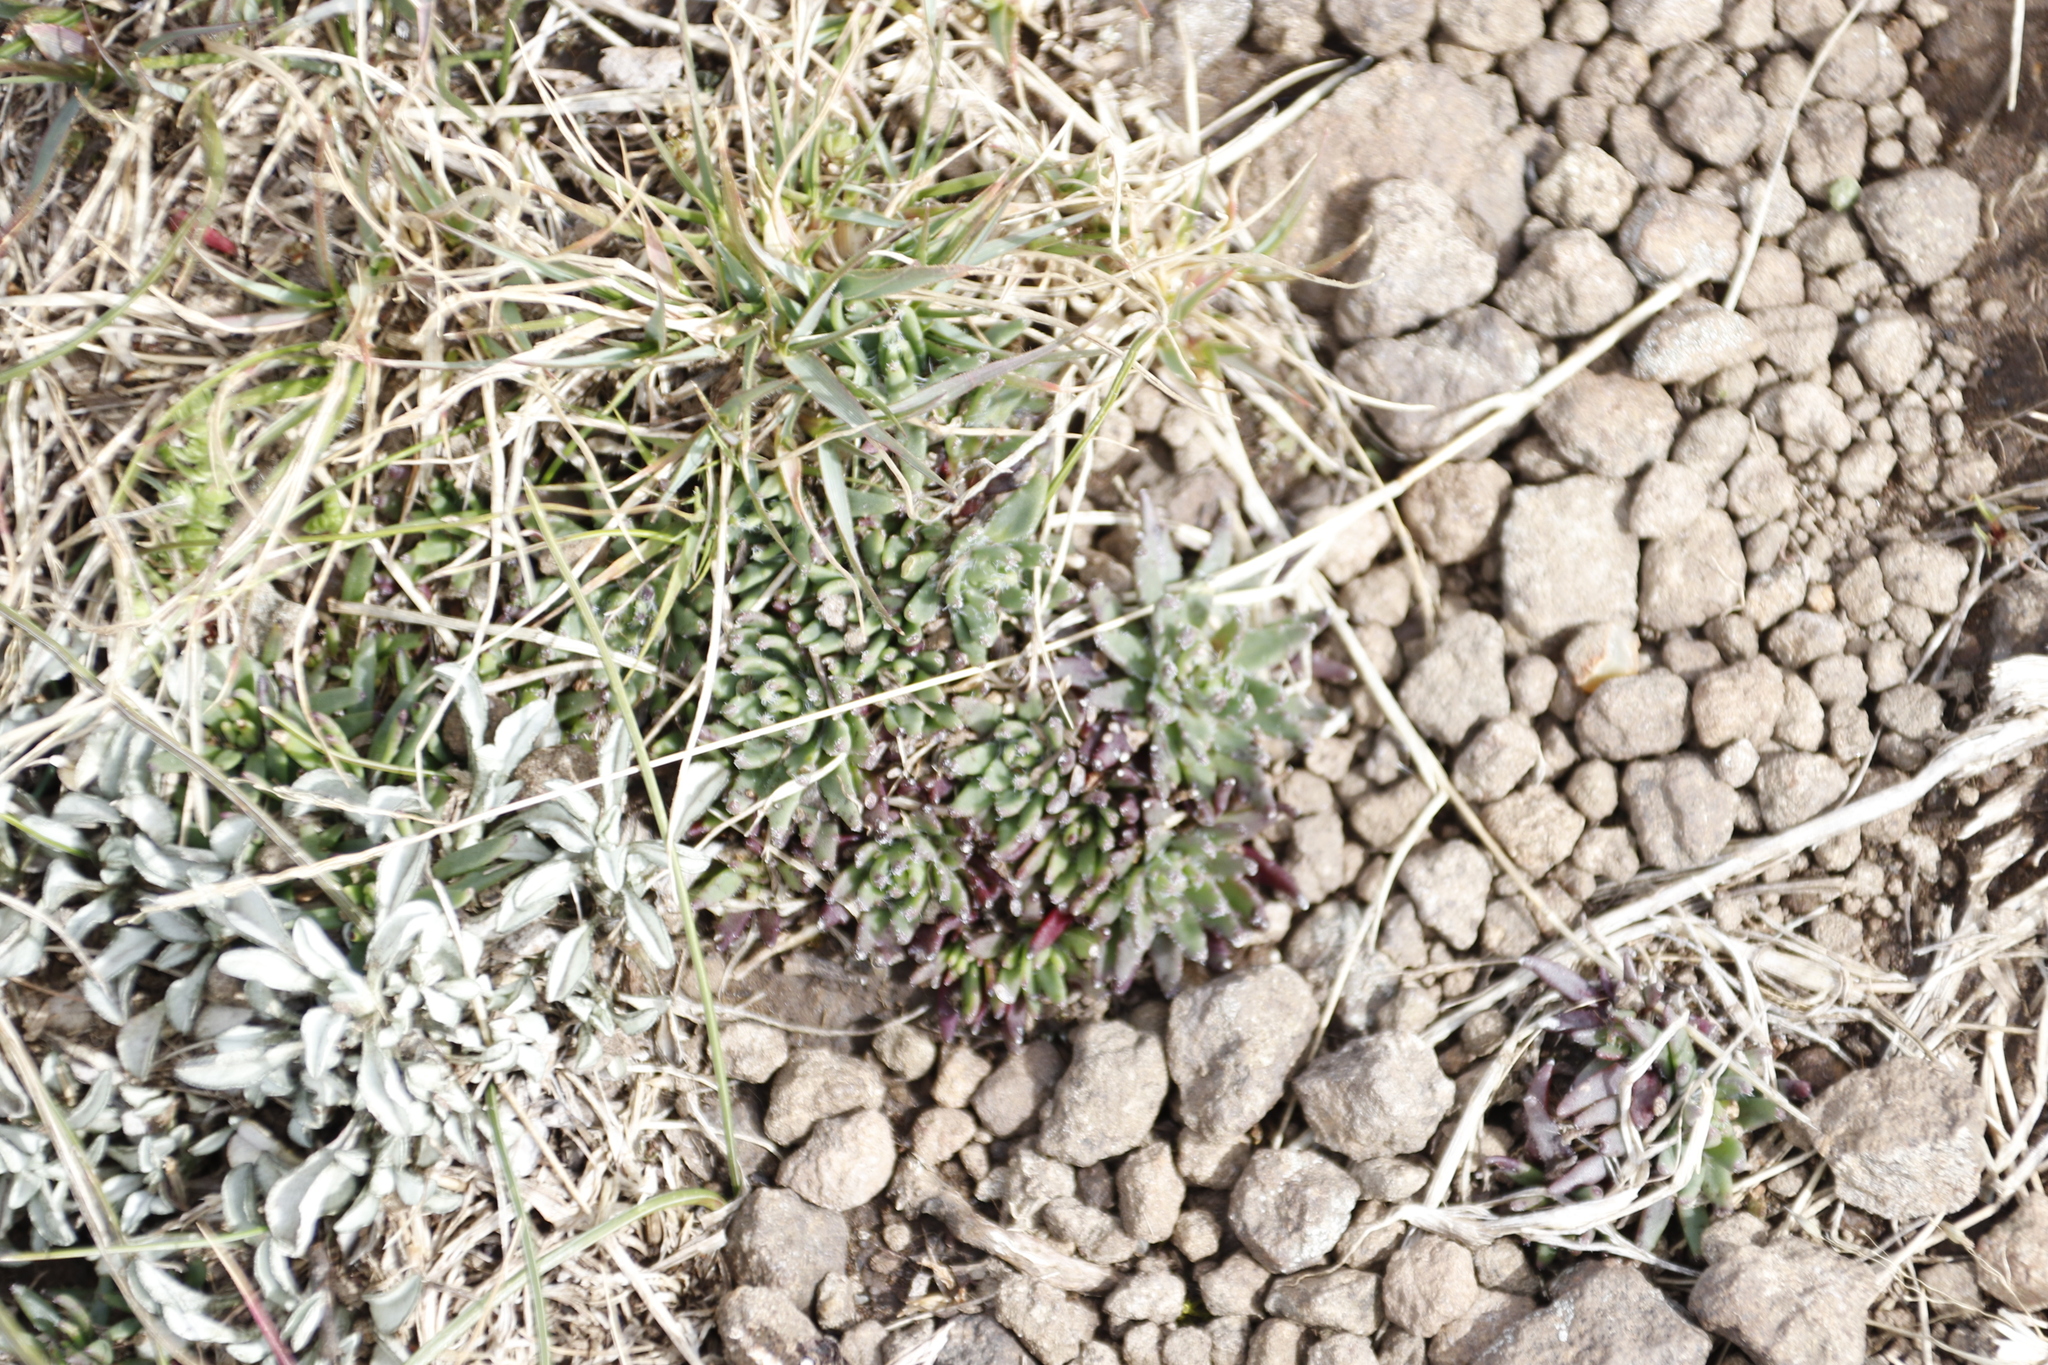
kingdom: Plantae
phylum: Tracheophyta
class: Magnoliopsida
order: Saxifragales
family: Crassulaceae
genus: Crassula
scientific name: Crassula peploides
